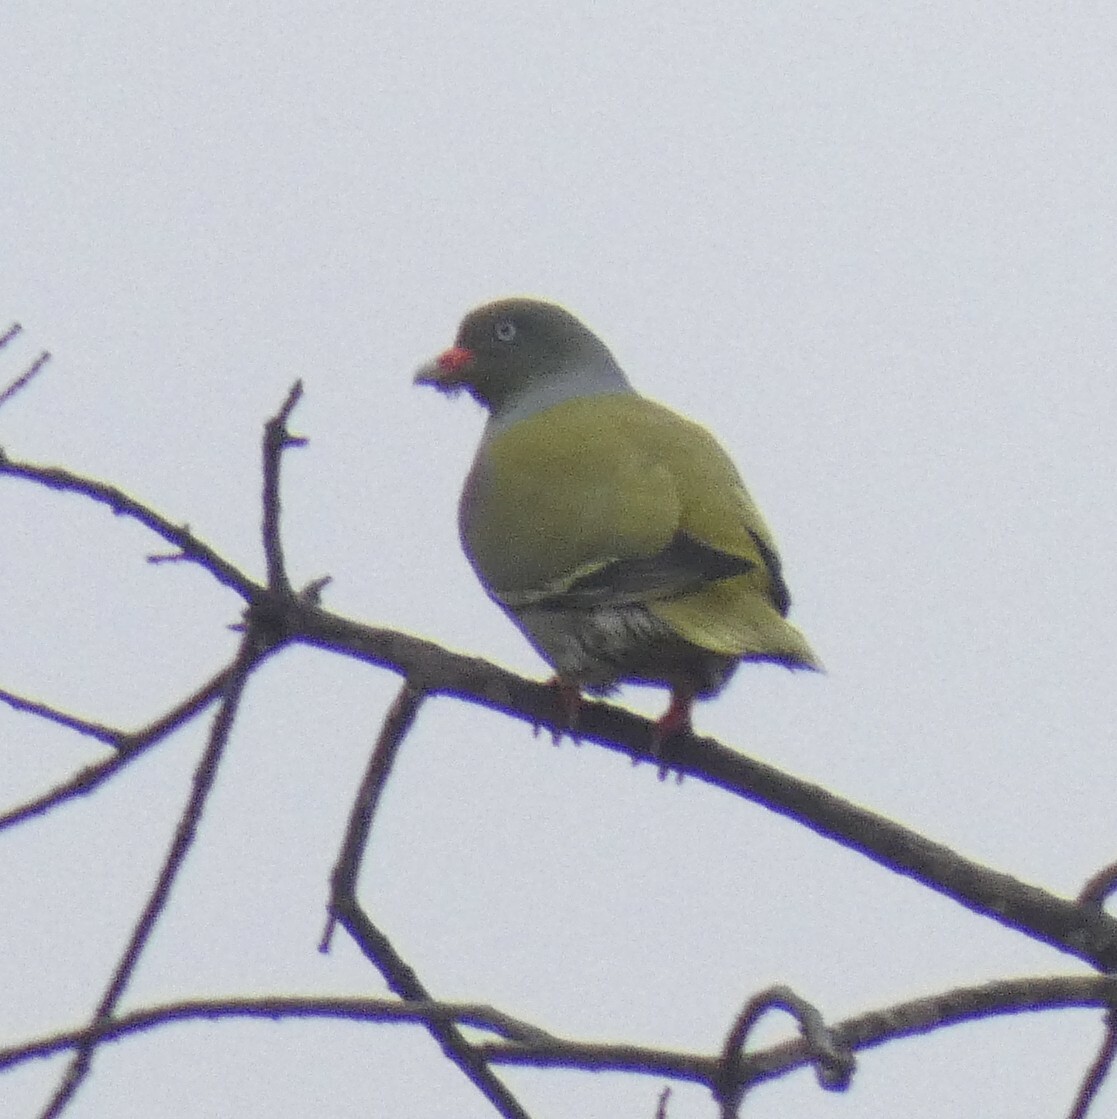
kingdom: Animalia
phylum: Chordata
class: Aves
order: Columbiformes
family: Columbidae
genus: Treron
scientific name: Treron calvus
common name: African green pigeon
